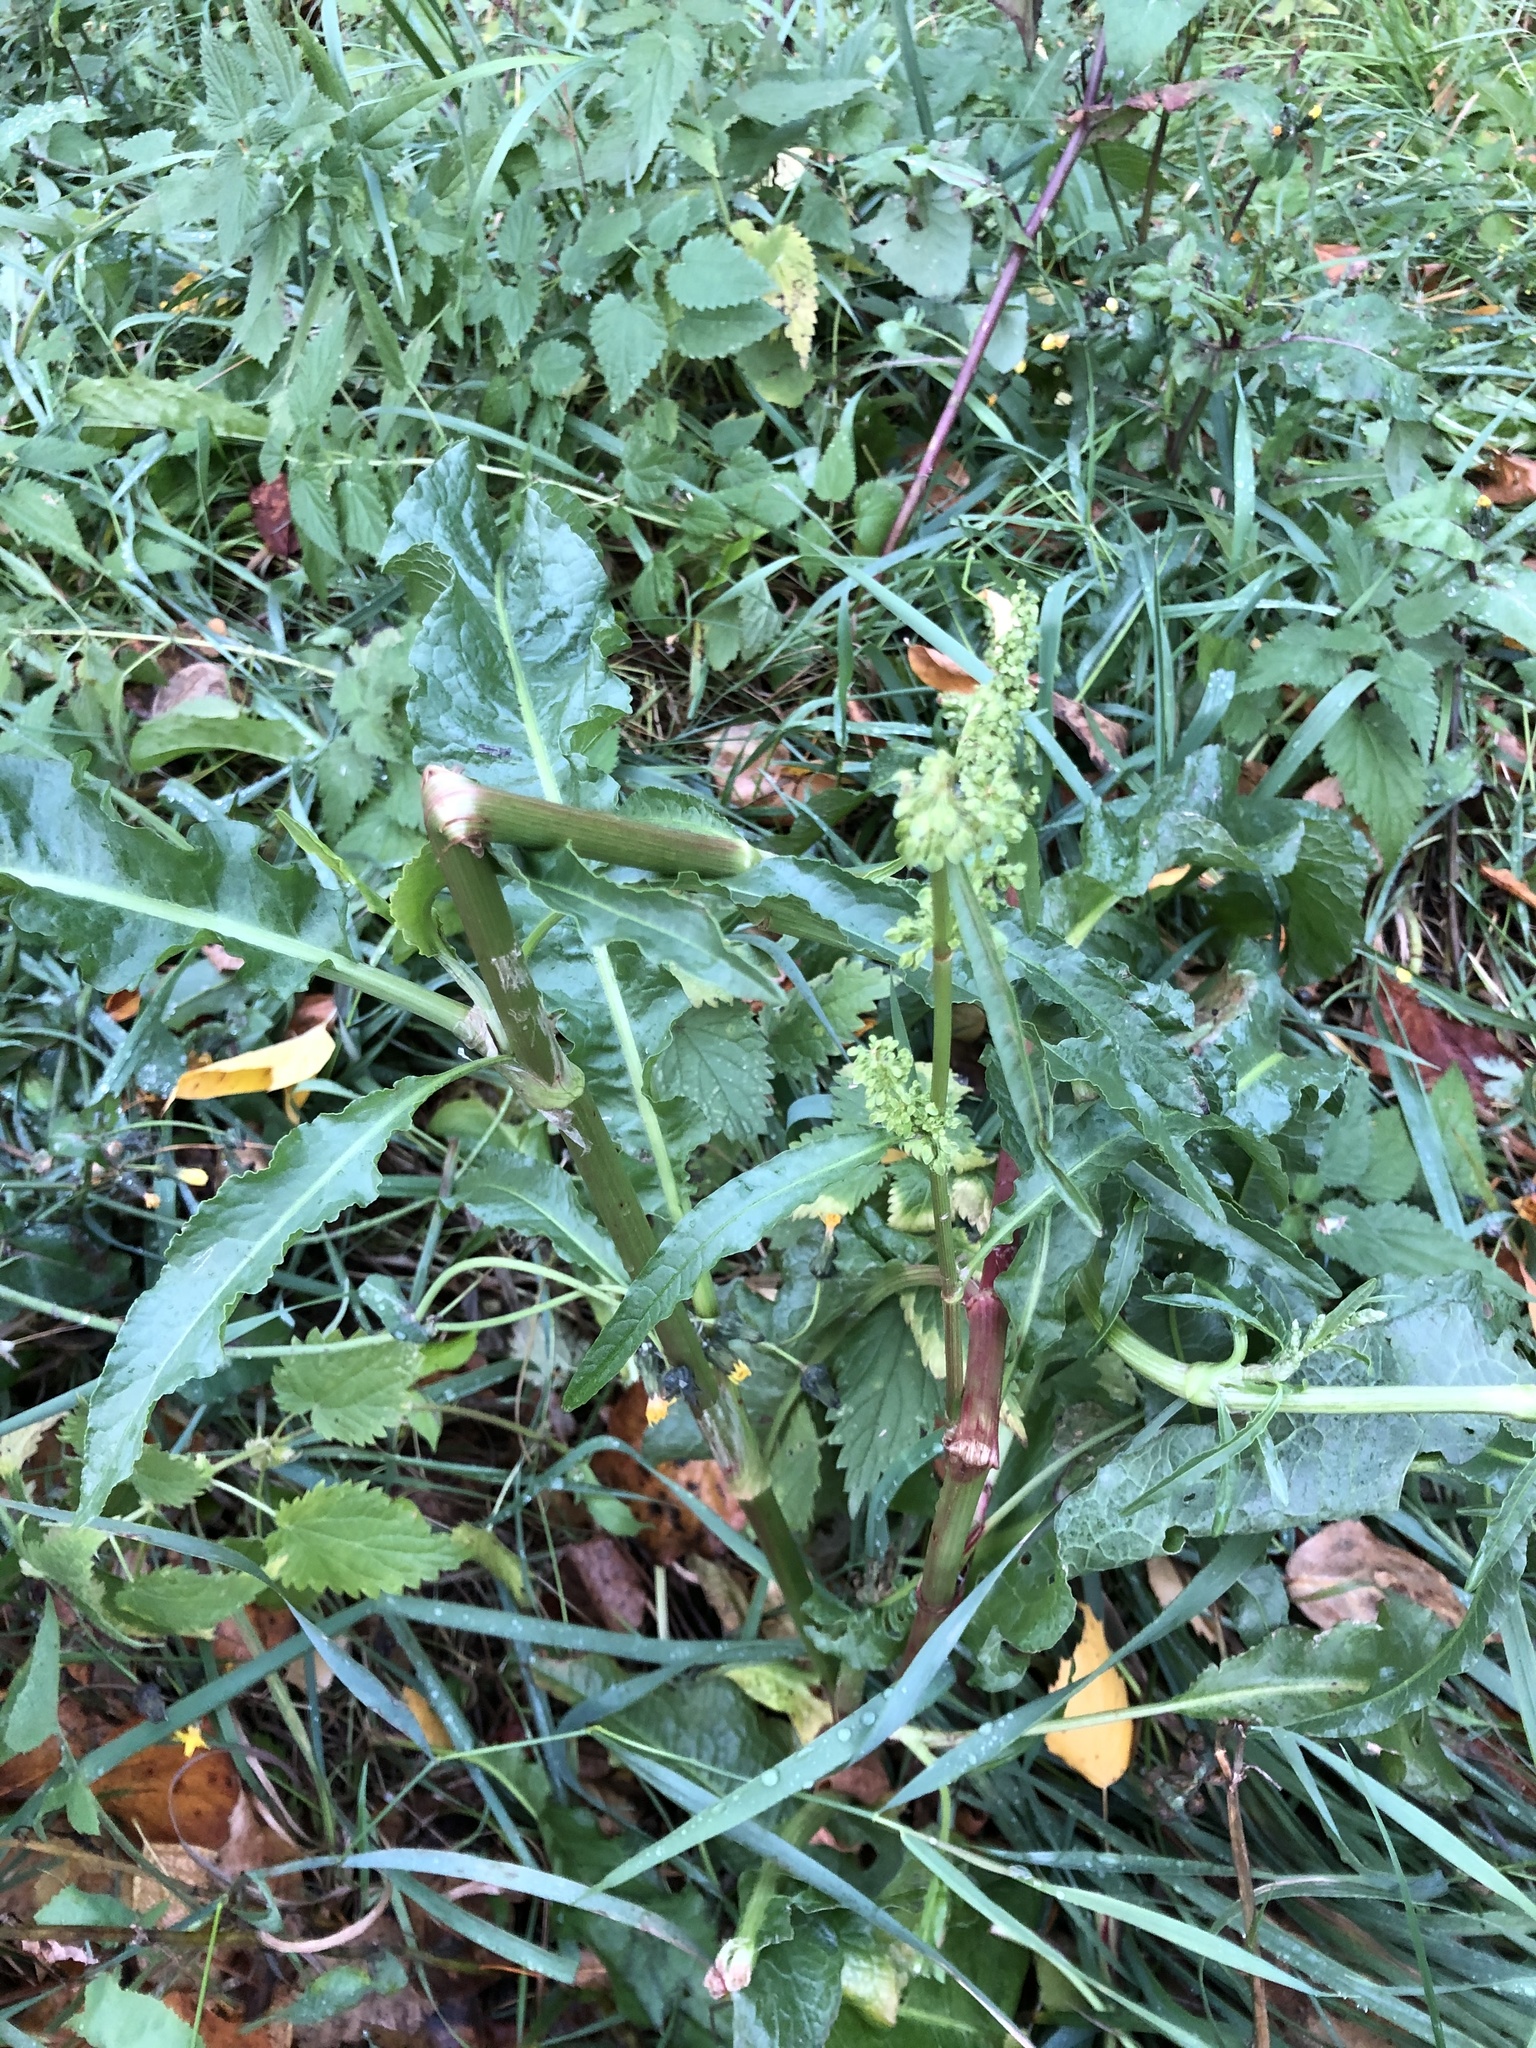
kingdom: Plantae
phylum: Tracheophyta
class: Magnoliopsida
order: Caryophyllales
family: Polygonaceae
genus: Rumex
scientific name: Rumex pseudonatronatus
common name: Field dock
